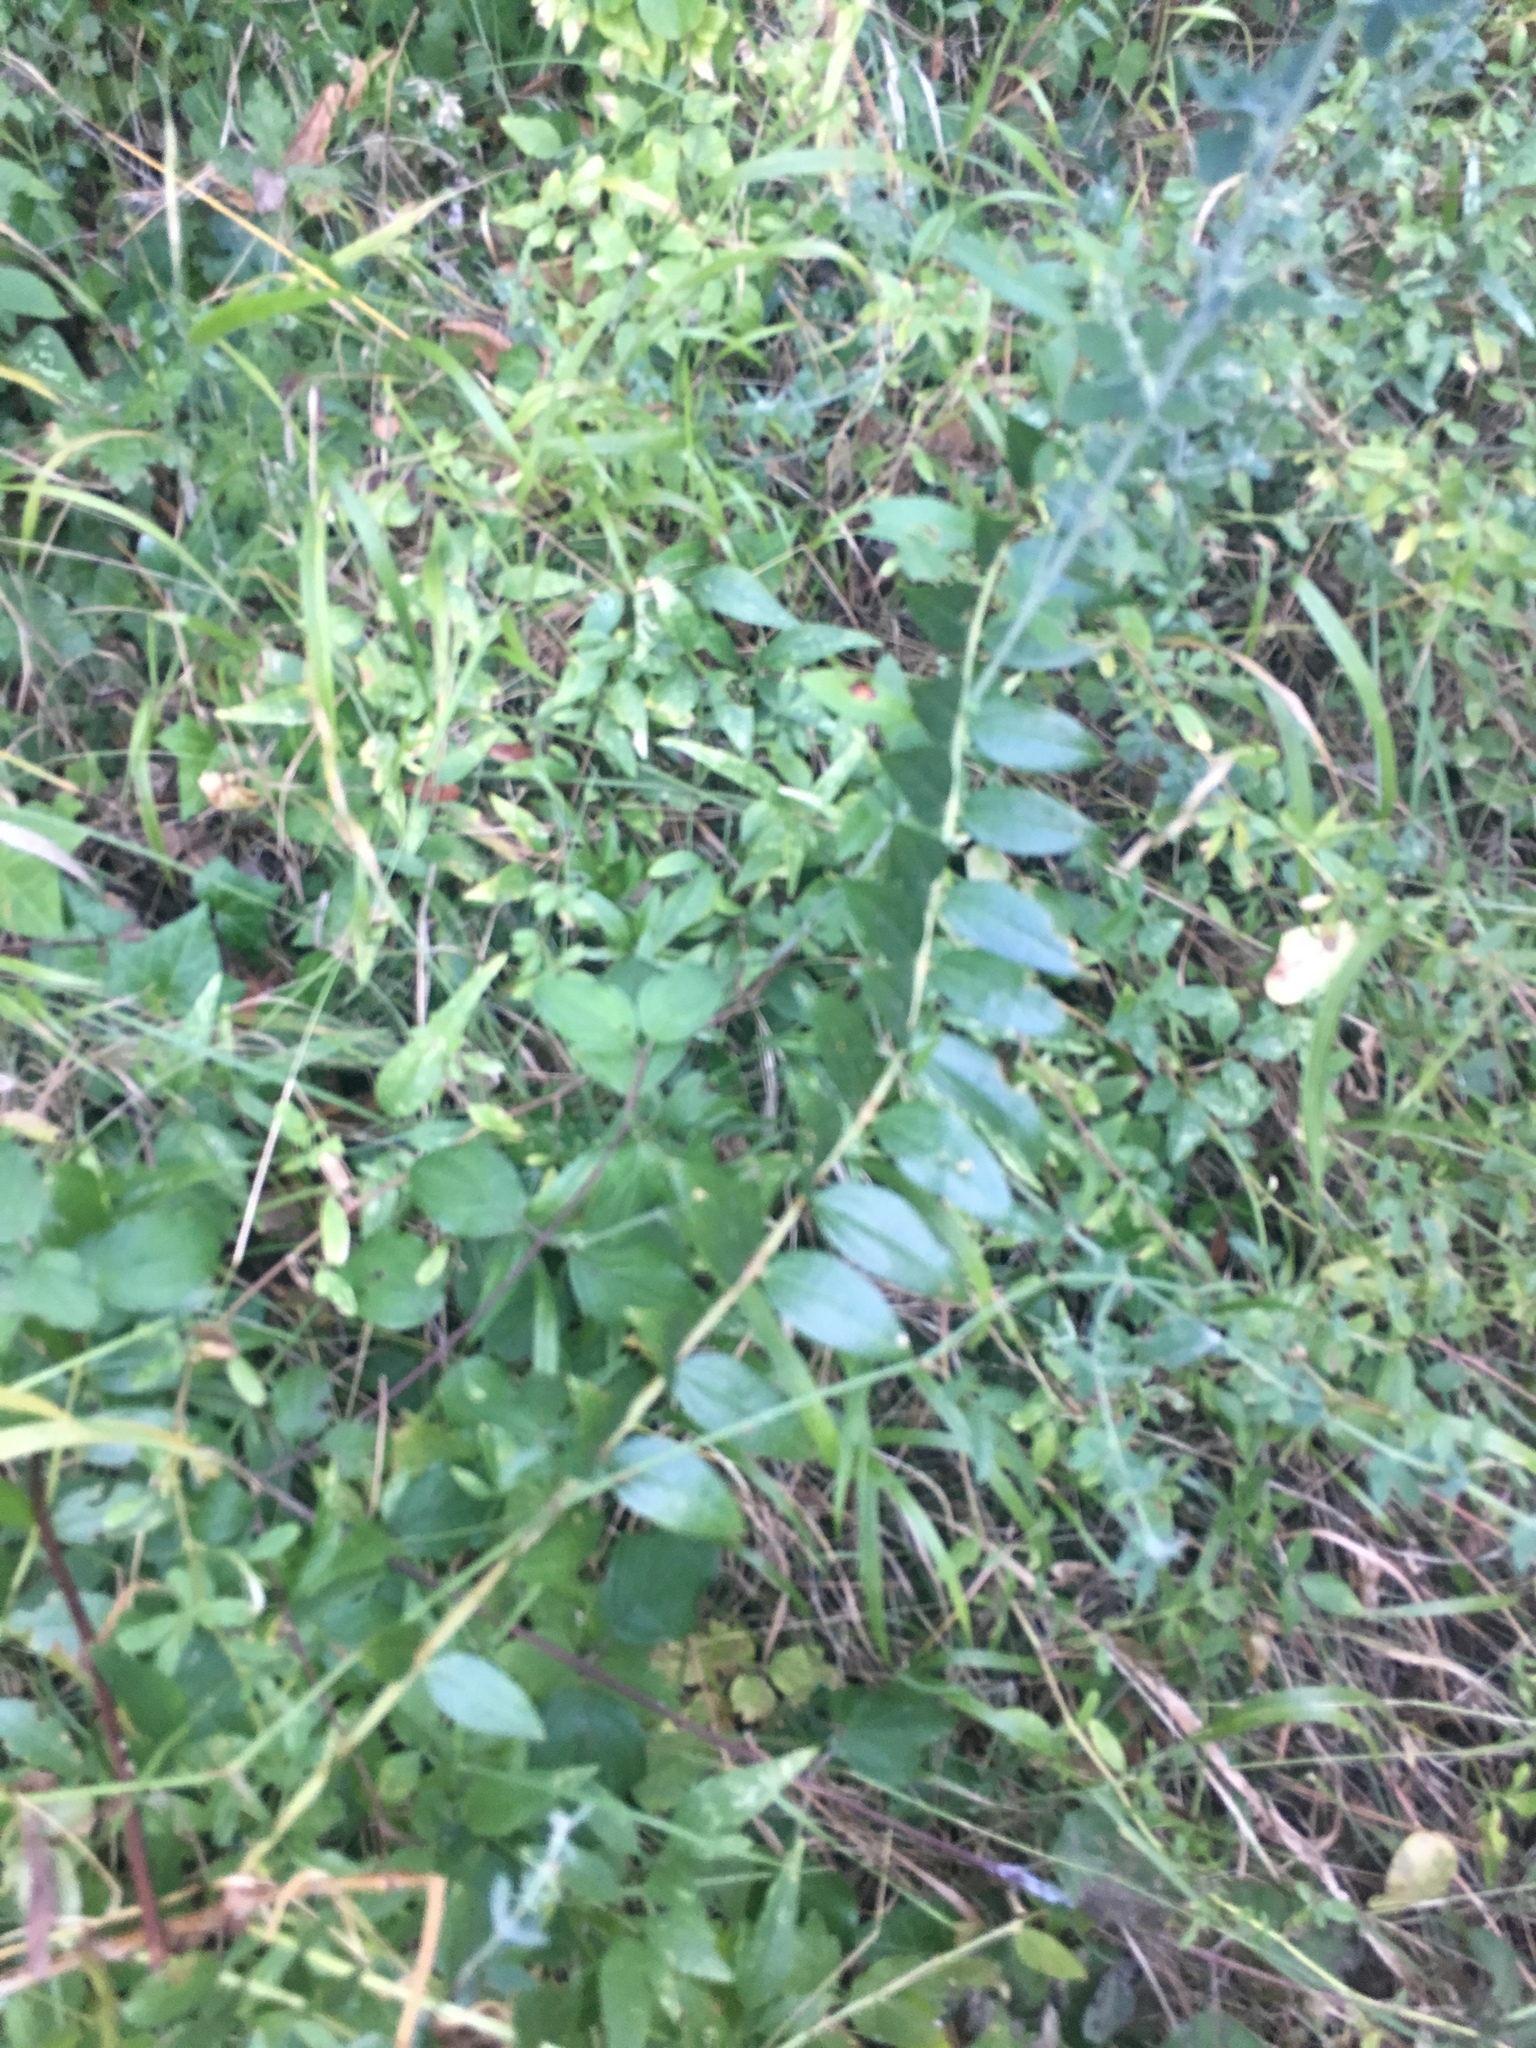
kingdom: Plantae
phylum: Tracheophyta
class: Magnoliopsida
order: Cucurbitales
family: Coriariaceae
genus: Coriaria
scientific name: Coriaria myrtifolia
